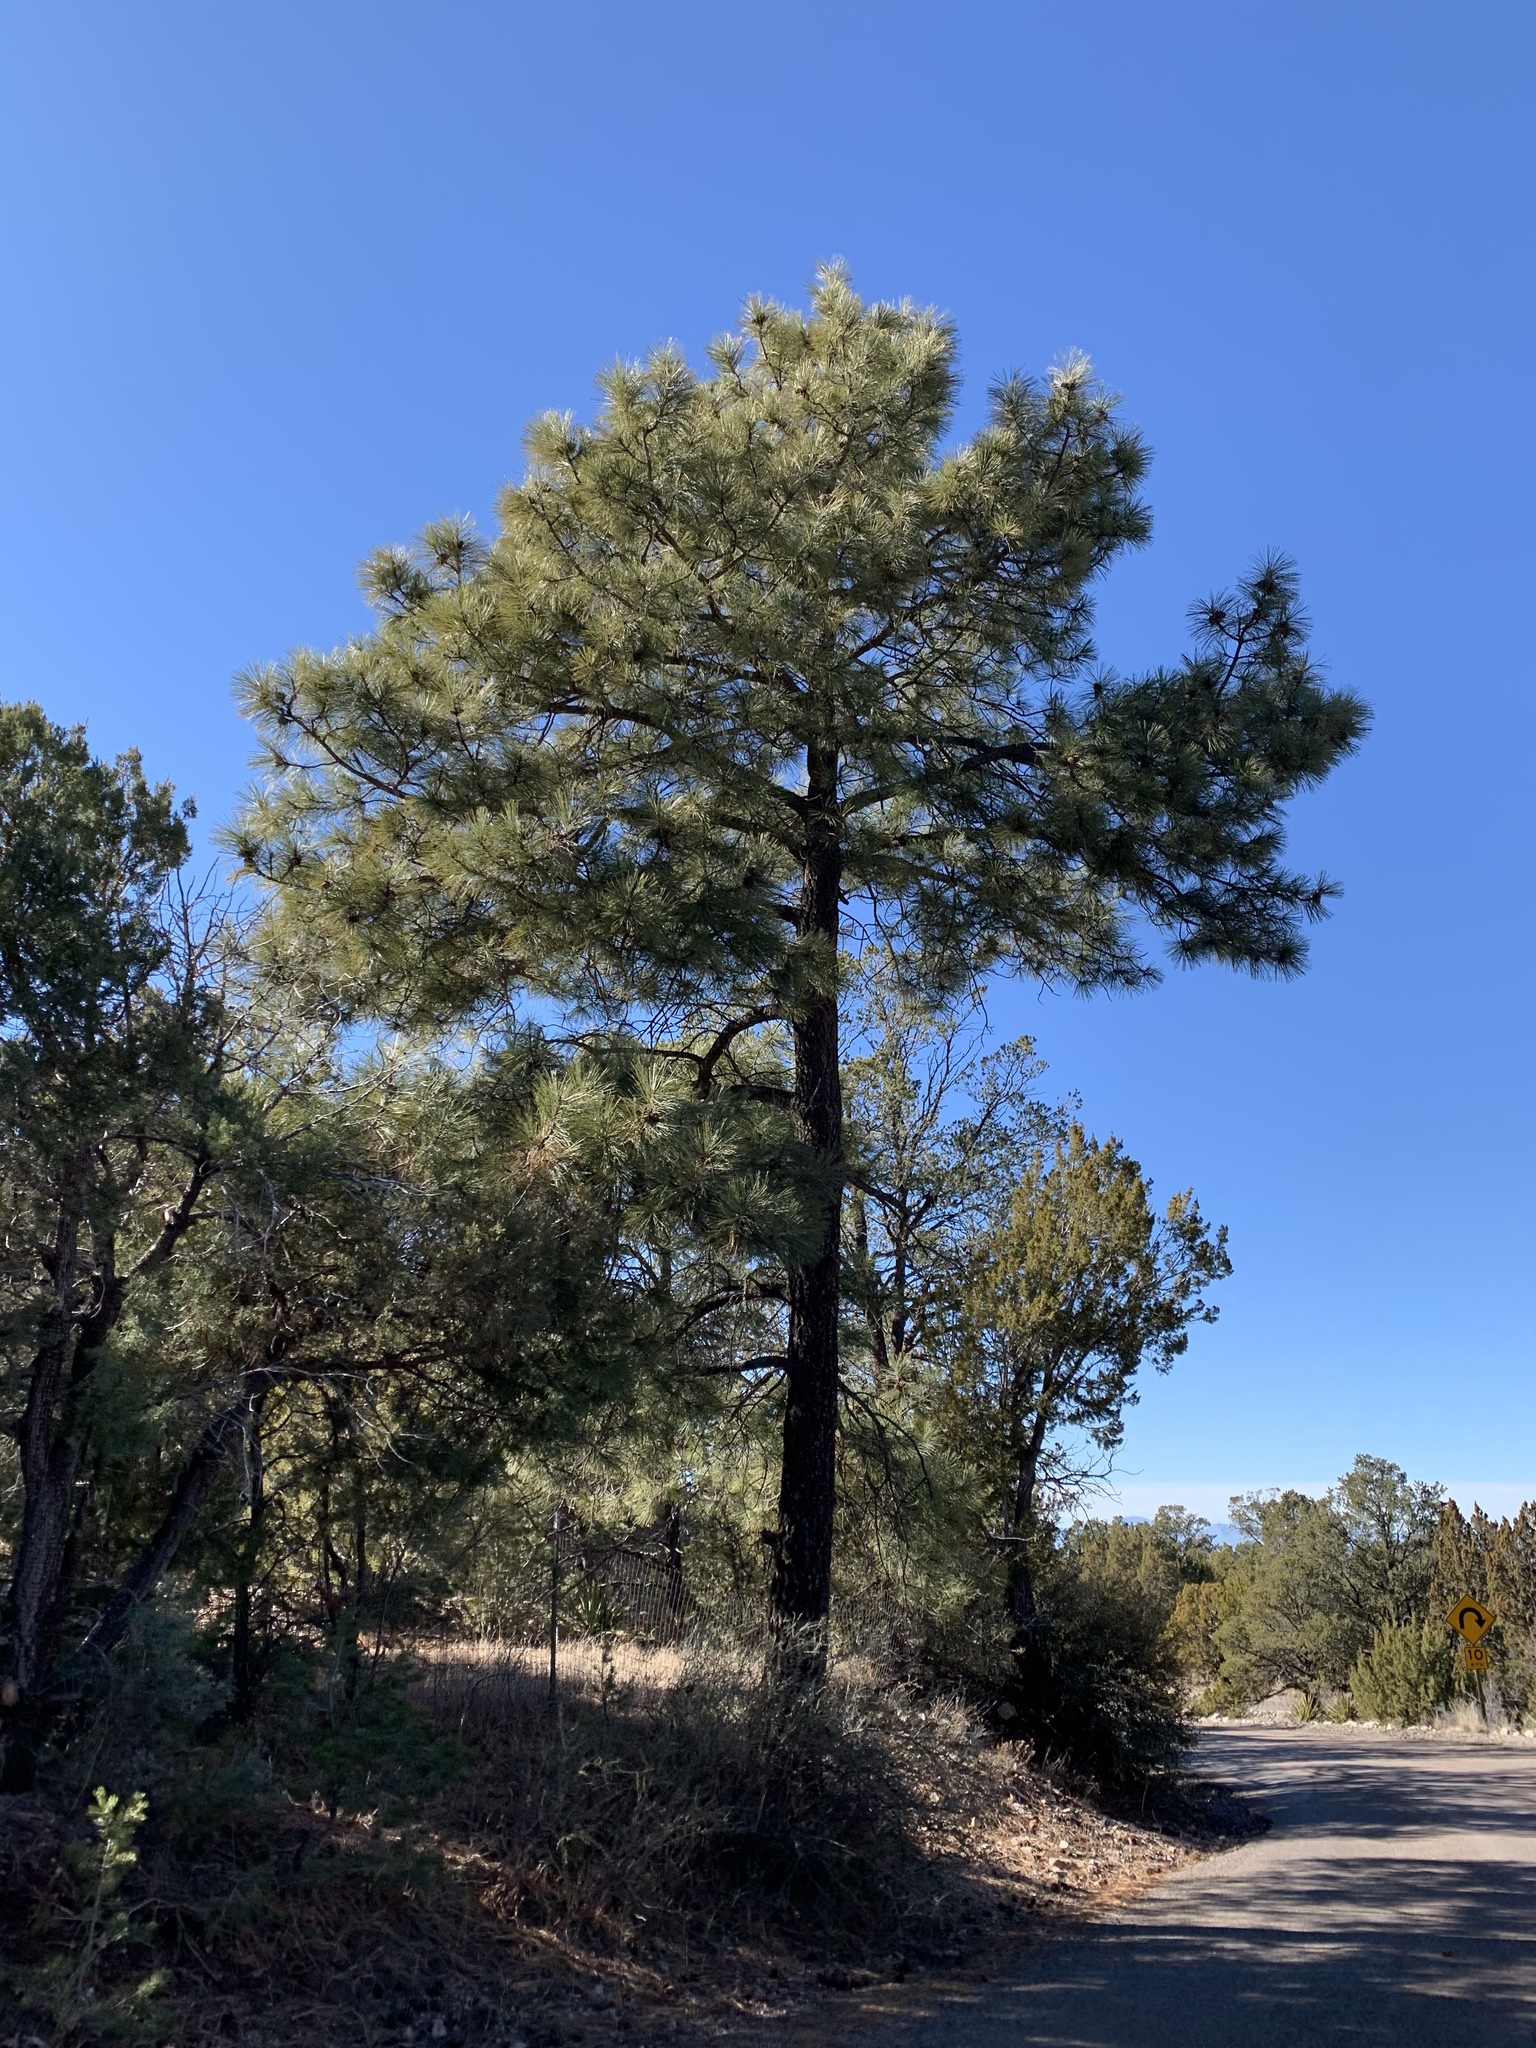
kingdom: Plantae
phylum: Tracheophyta
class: Pinopsida
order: Pinales
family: Pinaceae
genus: Pinus
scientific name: Pinus ponderosa
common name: Western yellow-pine
